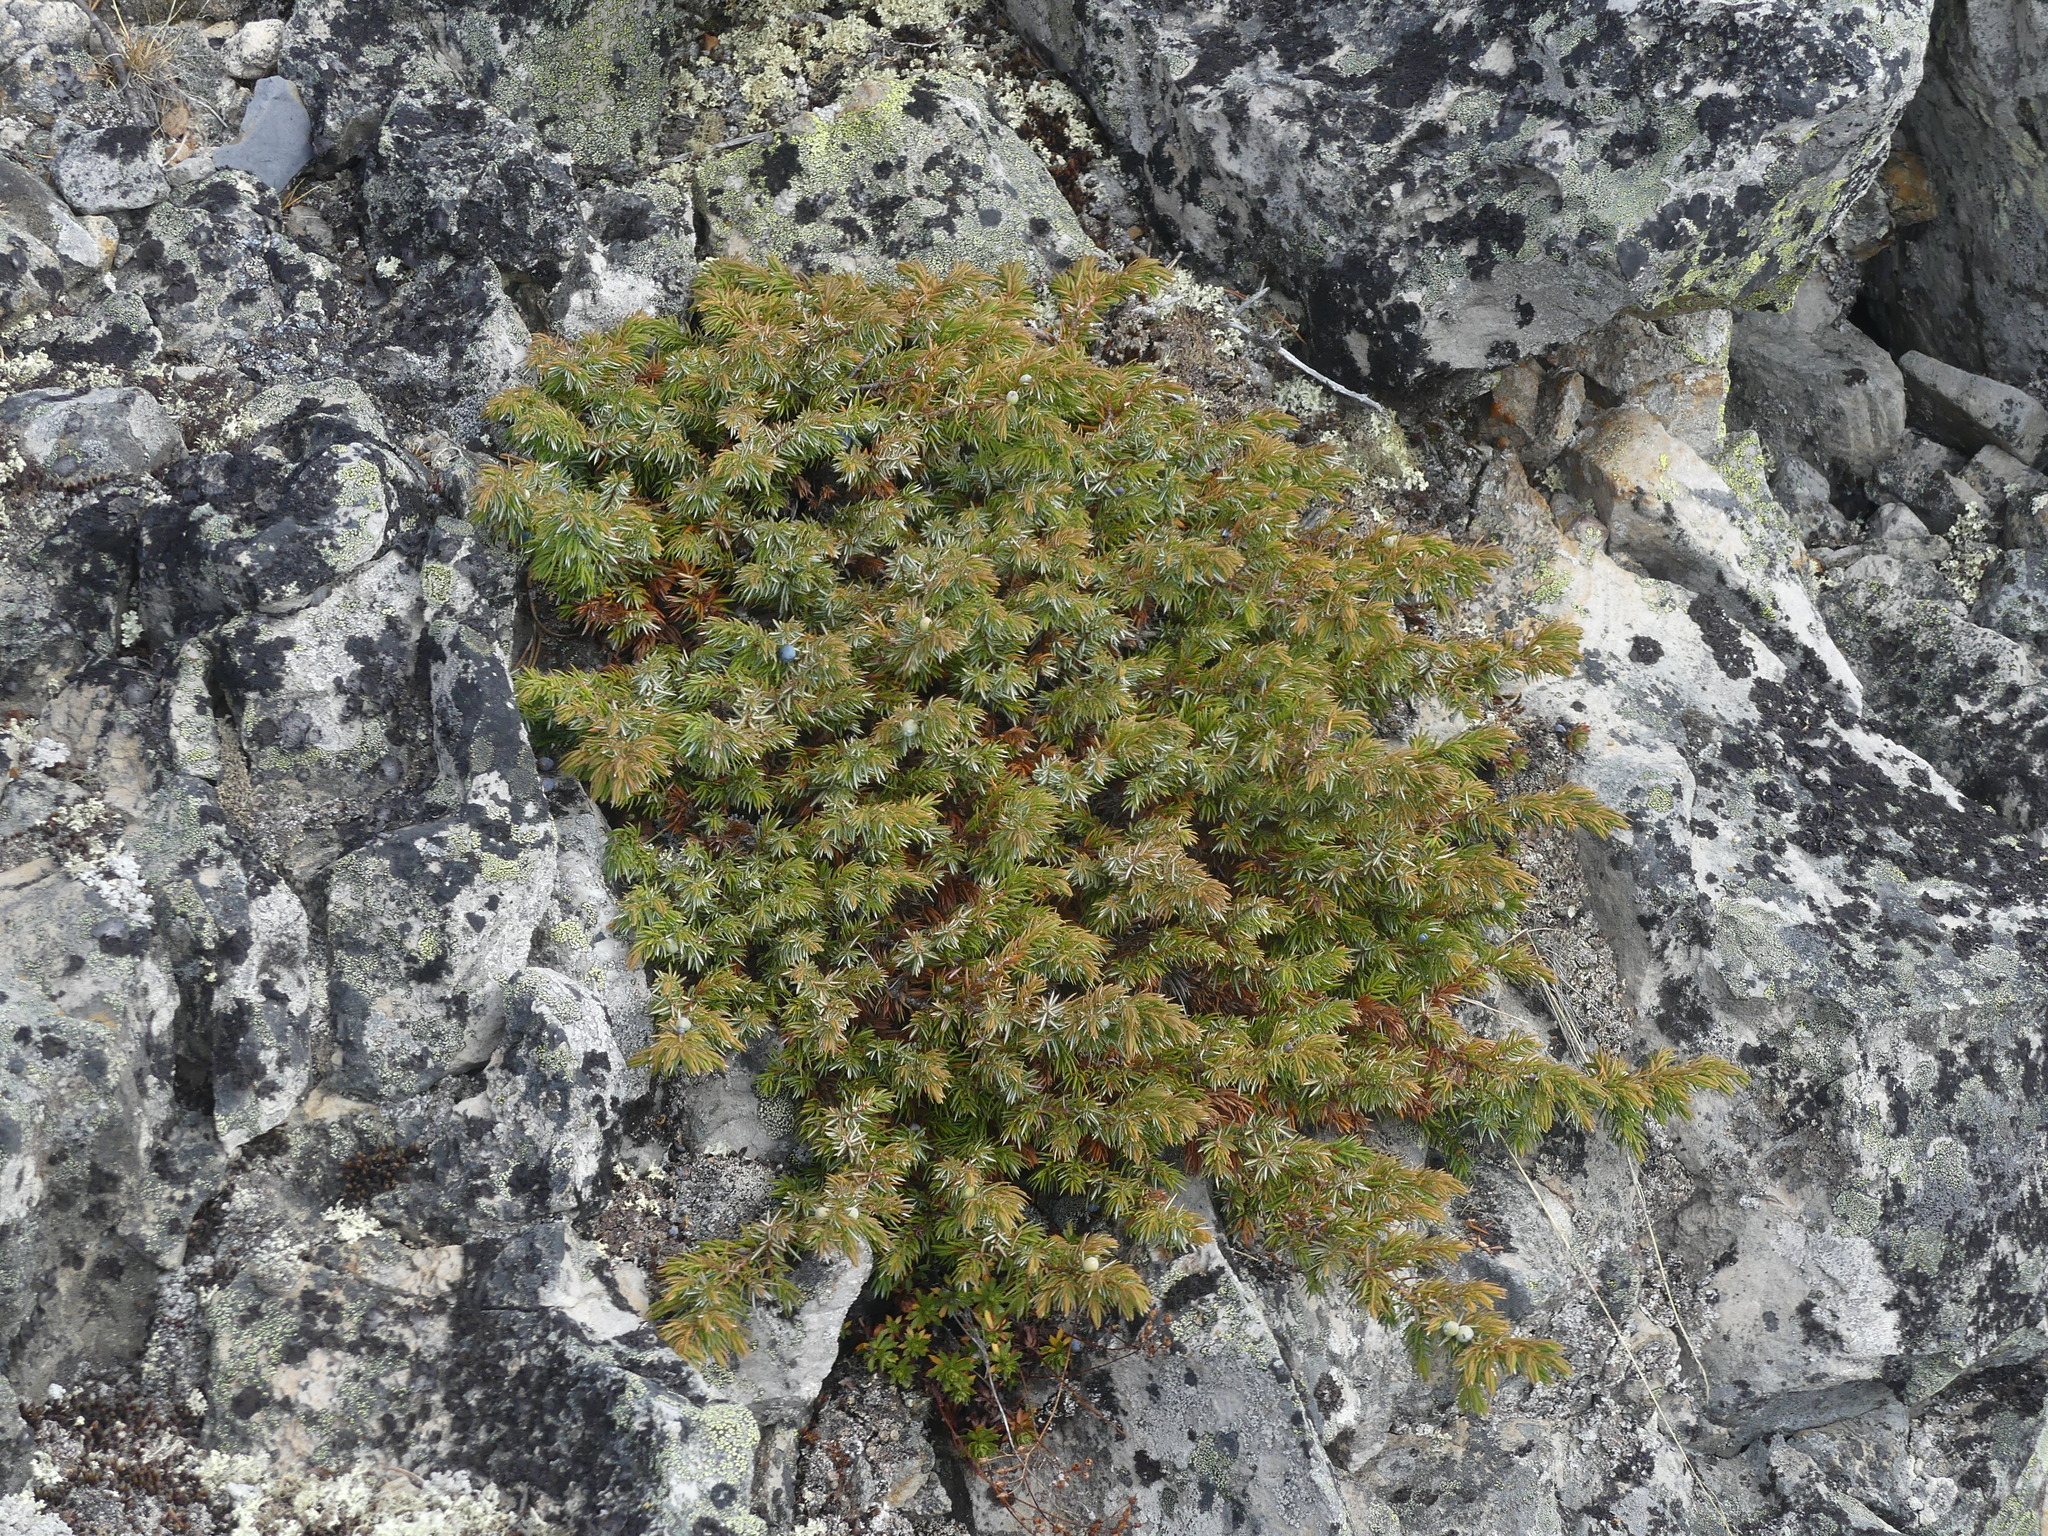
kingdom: Plantae
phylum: Tracheophyta
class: Pinopsida
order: Pinales
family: Cupressaceae
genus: Juniperus
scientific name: Juniperus communis
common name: Common juniper
